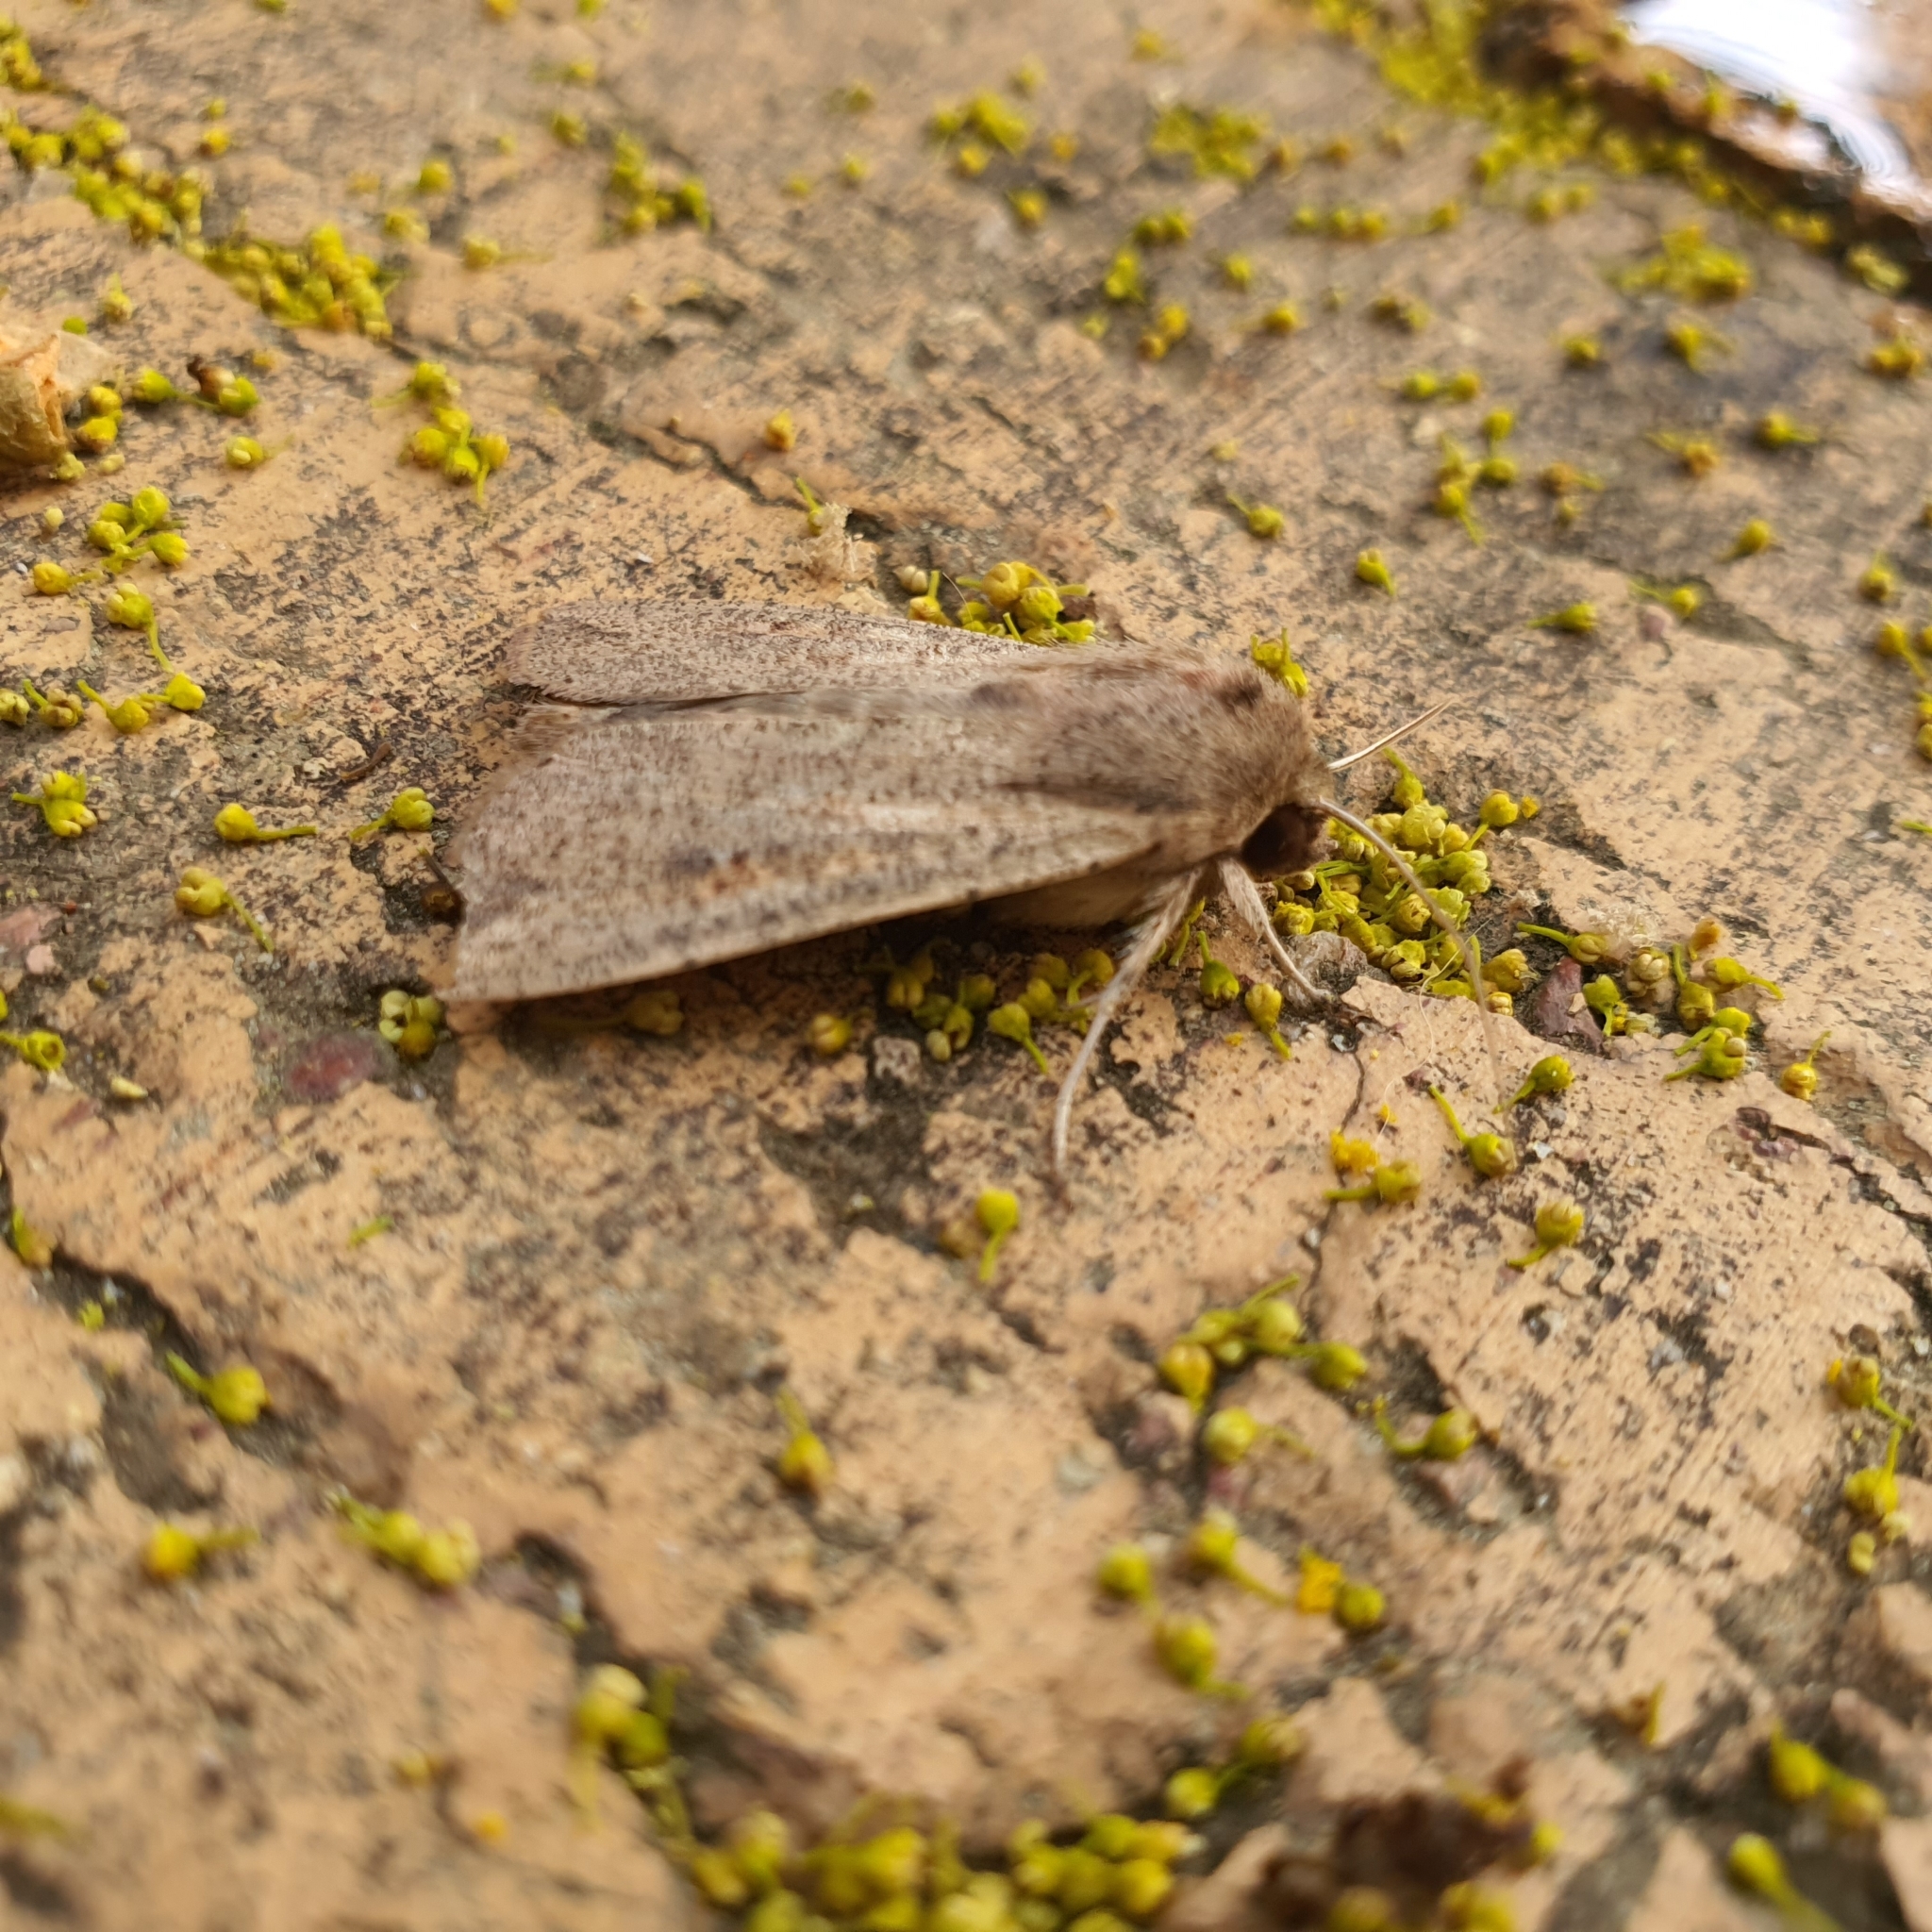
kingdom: Animalia
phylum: Arthropoda
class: Insecta
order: Lepidoptera
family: Noctuidae
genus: Mythimna
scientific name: Mythimna convecta
